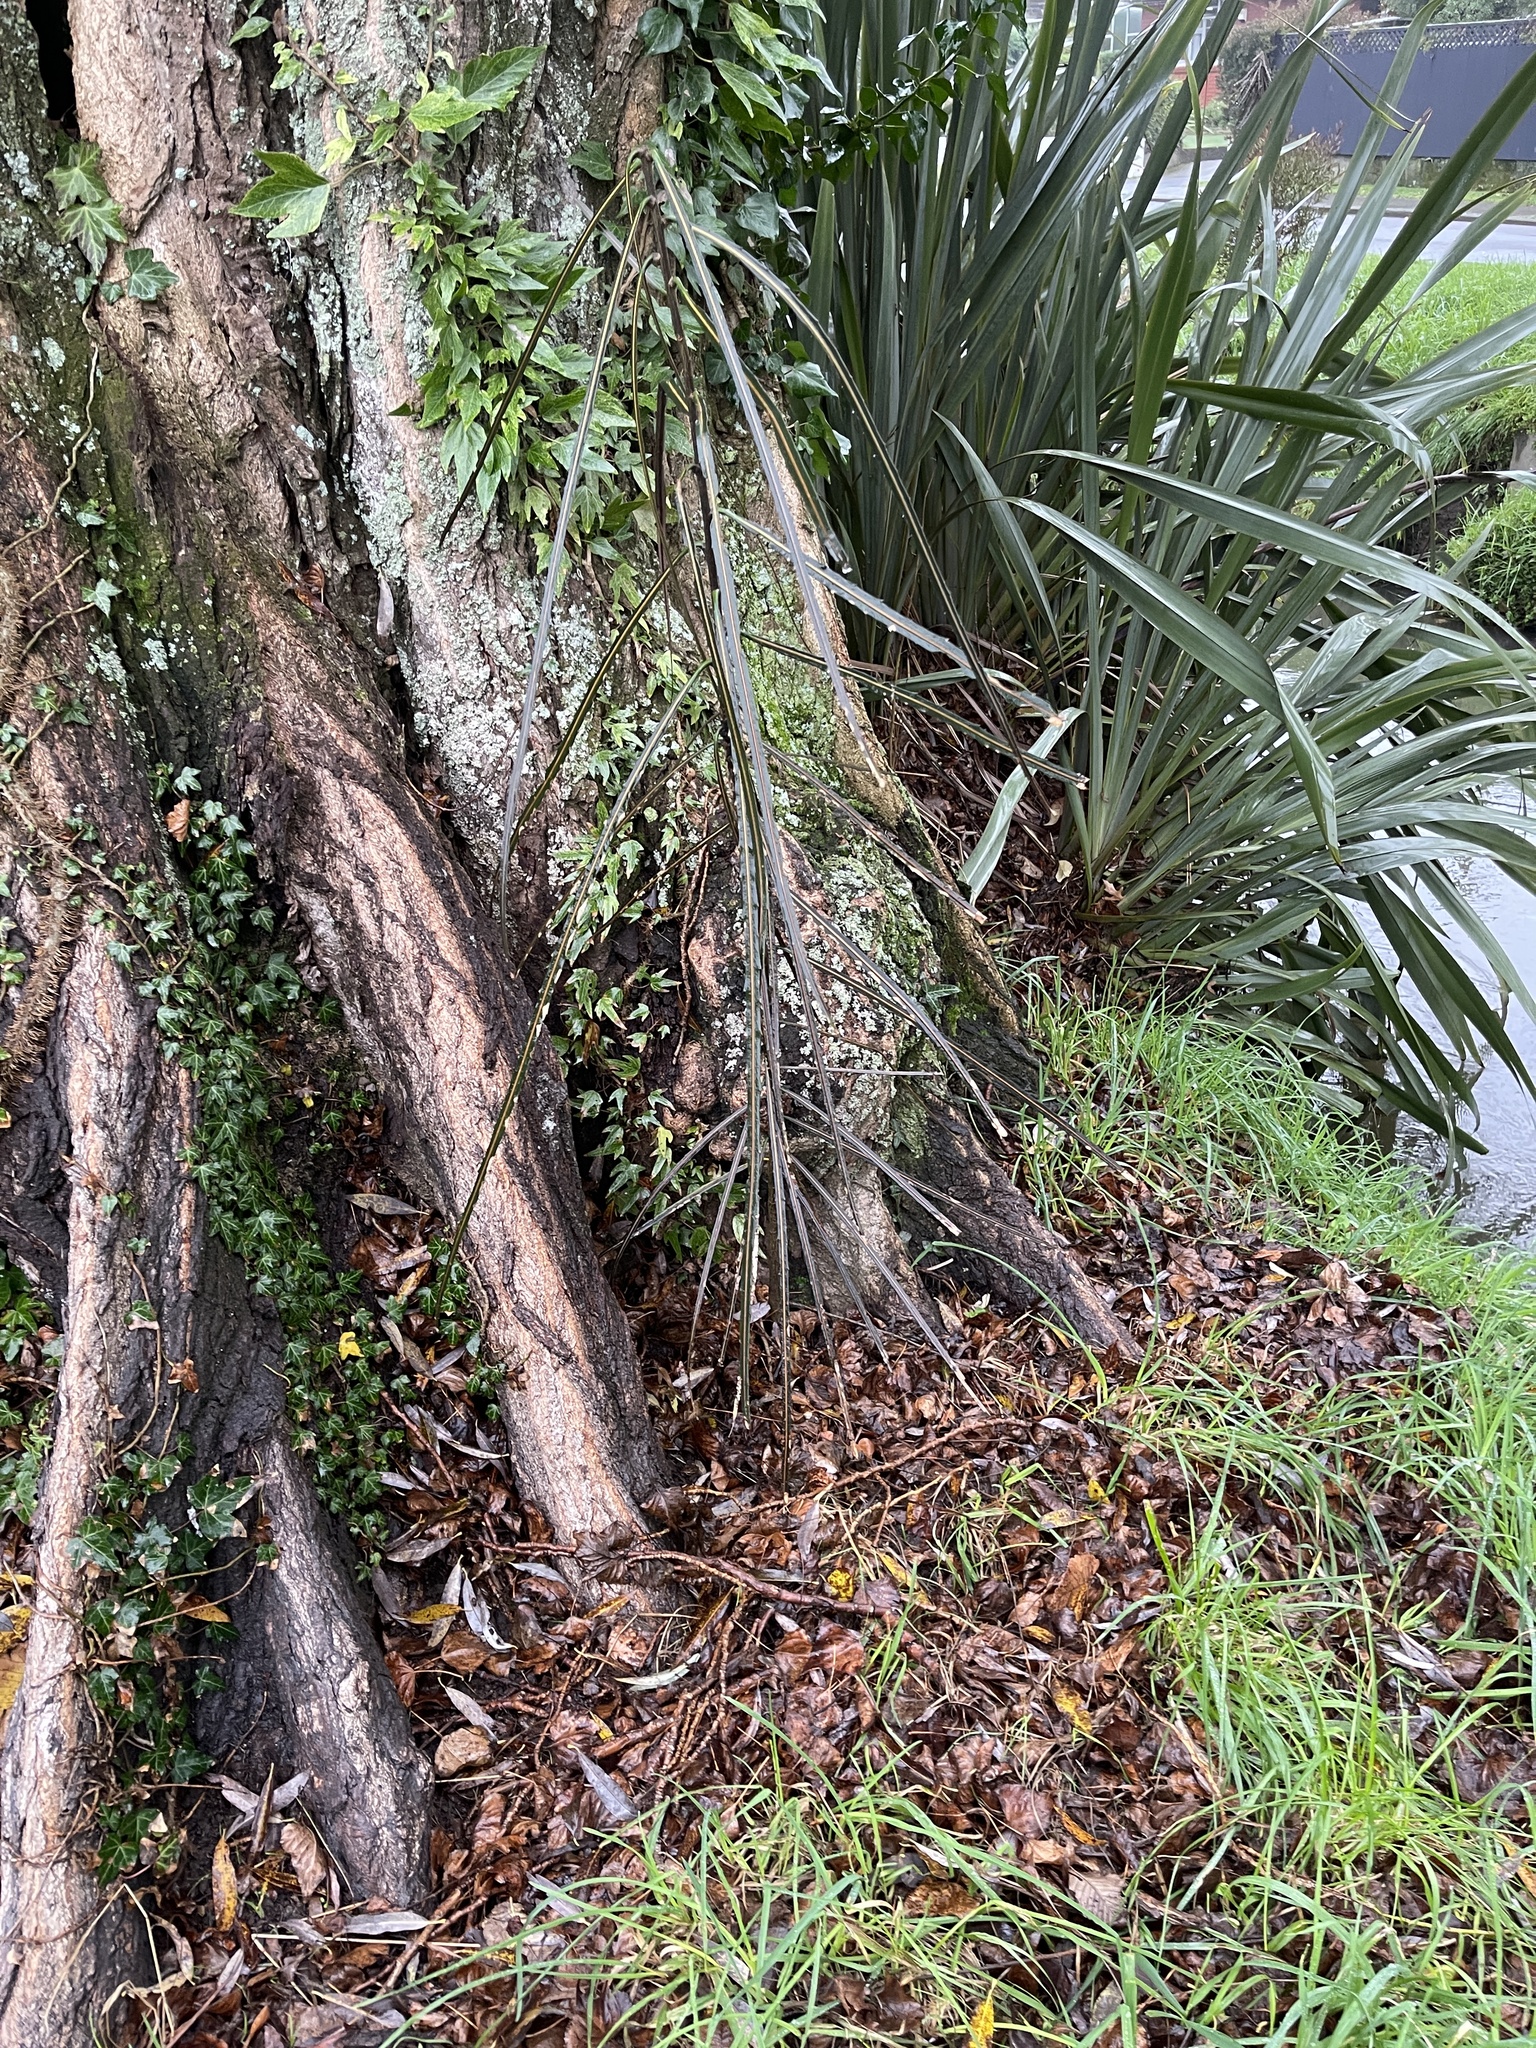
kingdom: Plantae
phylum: Tracheophyta
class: Magnoliopsida
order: Apiales
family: Araliaceae
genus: Pseudopanax
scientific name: Pseudopanax crassifolius
